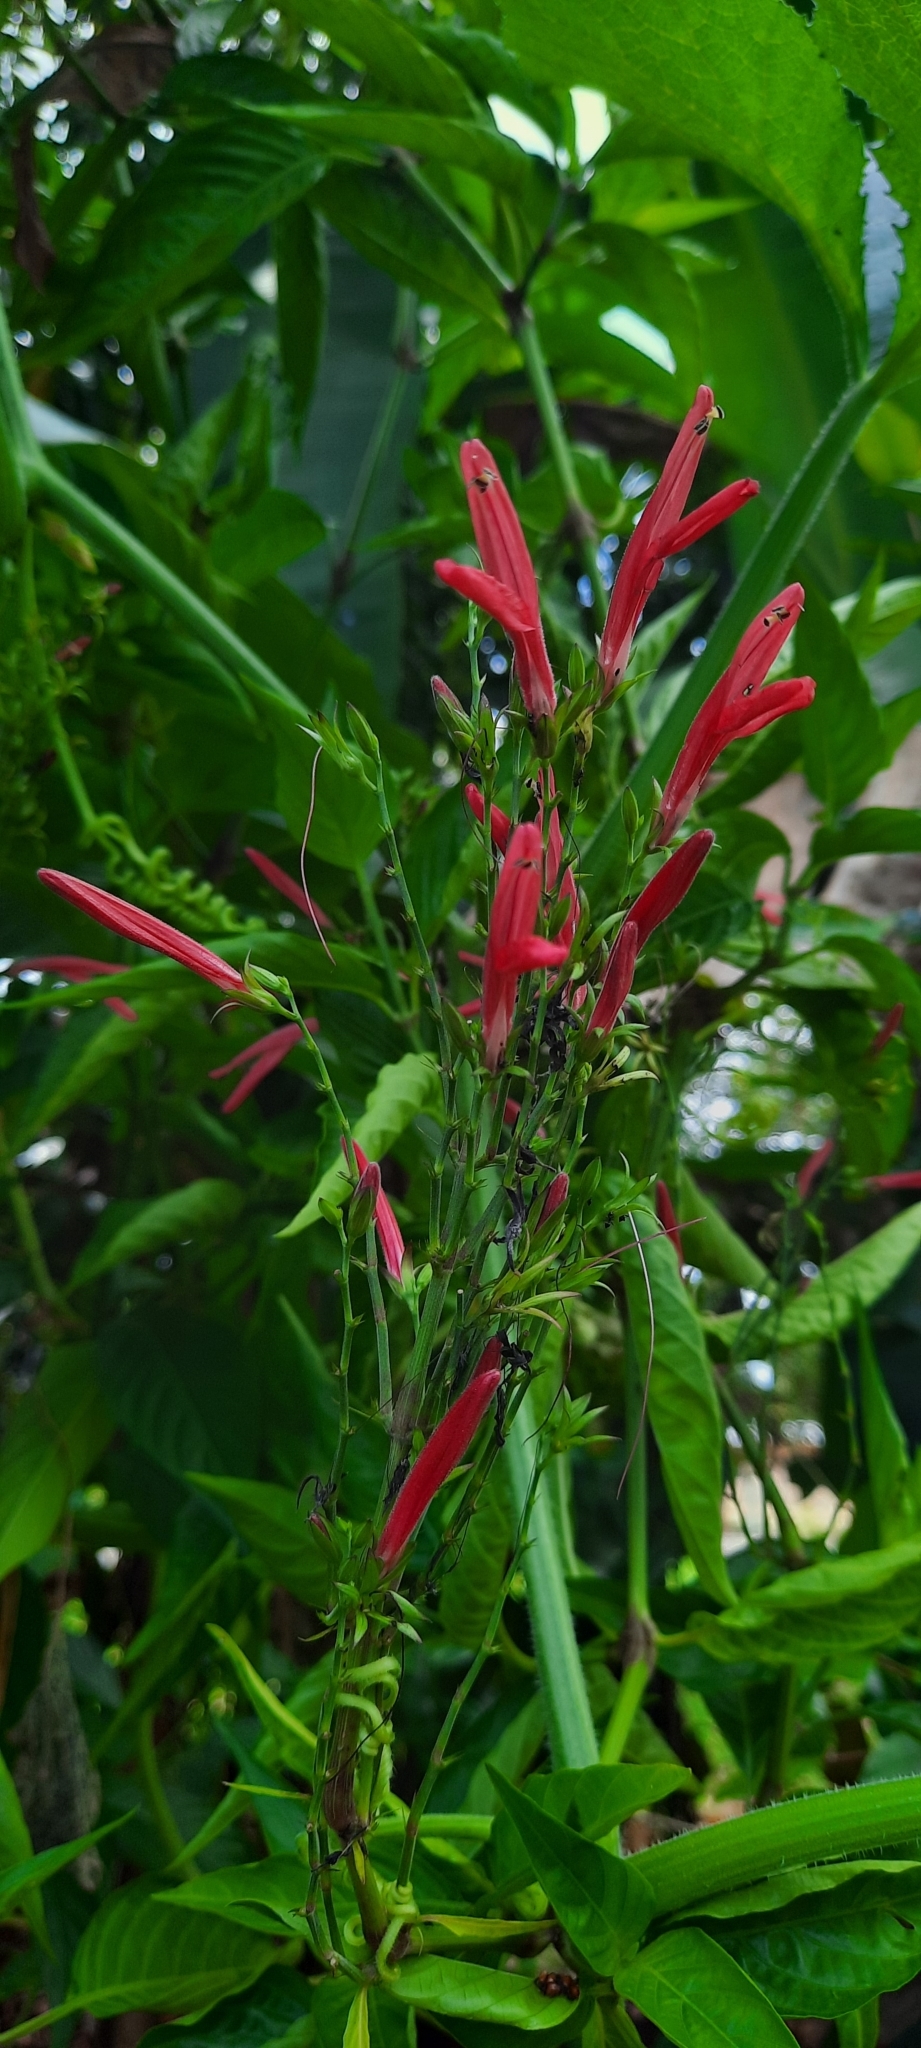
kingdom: Plantae
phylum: Tracheophyta
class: Magnoliopsida
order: Lamiales
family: Acanthaceae
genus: Dianthera
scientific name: Dianthera secunda
